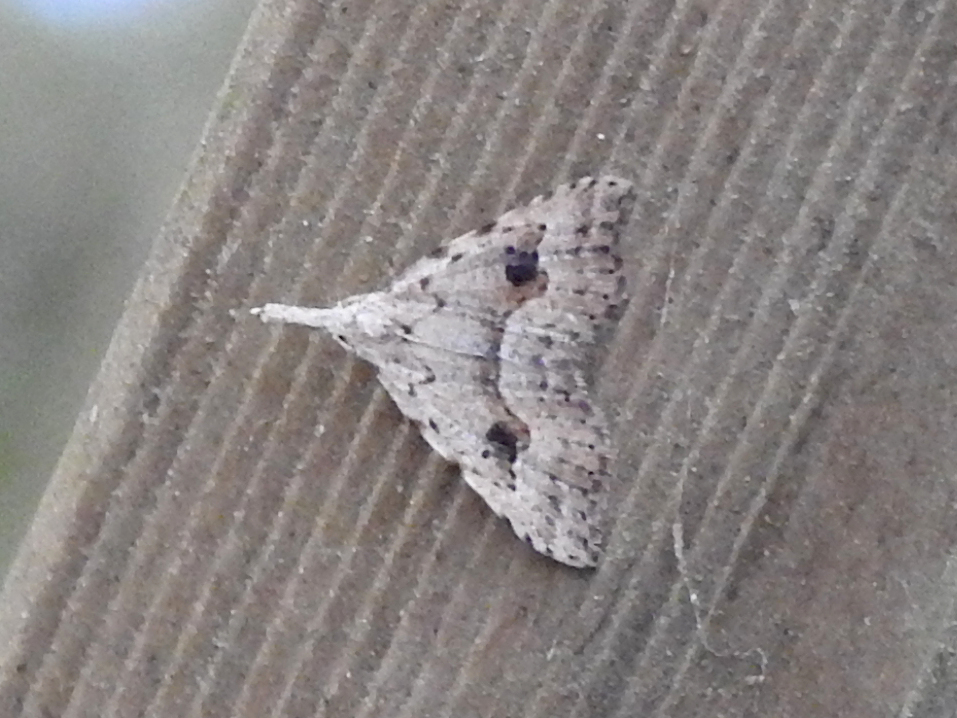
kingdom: Animalia
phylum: Arthropoda
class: Insecta
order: Lepidoptera
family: Erebidae
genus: Trigonistis
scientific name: Trigonistis asthenopa
